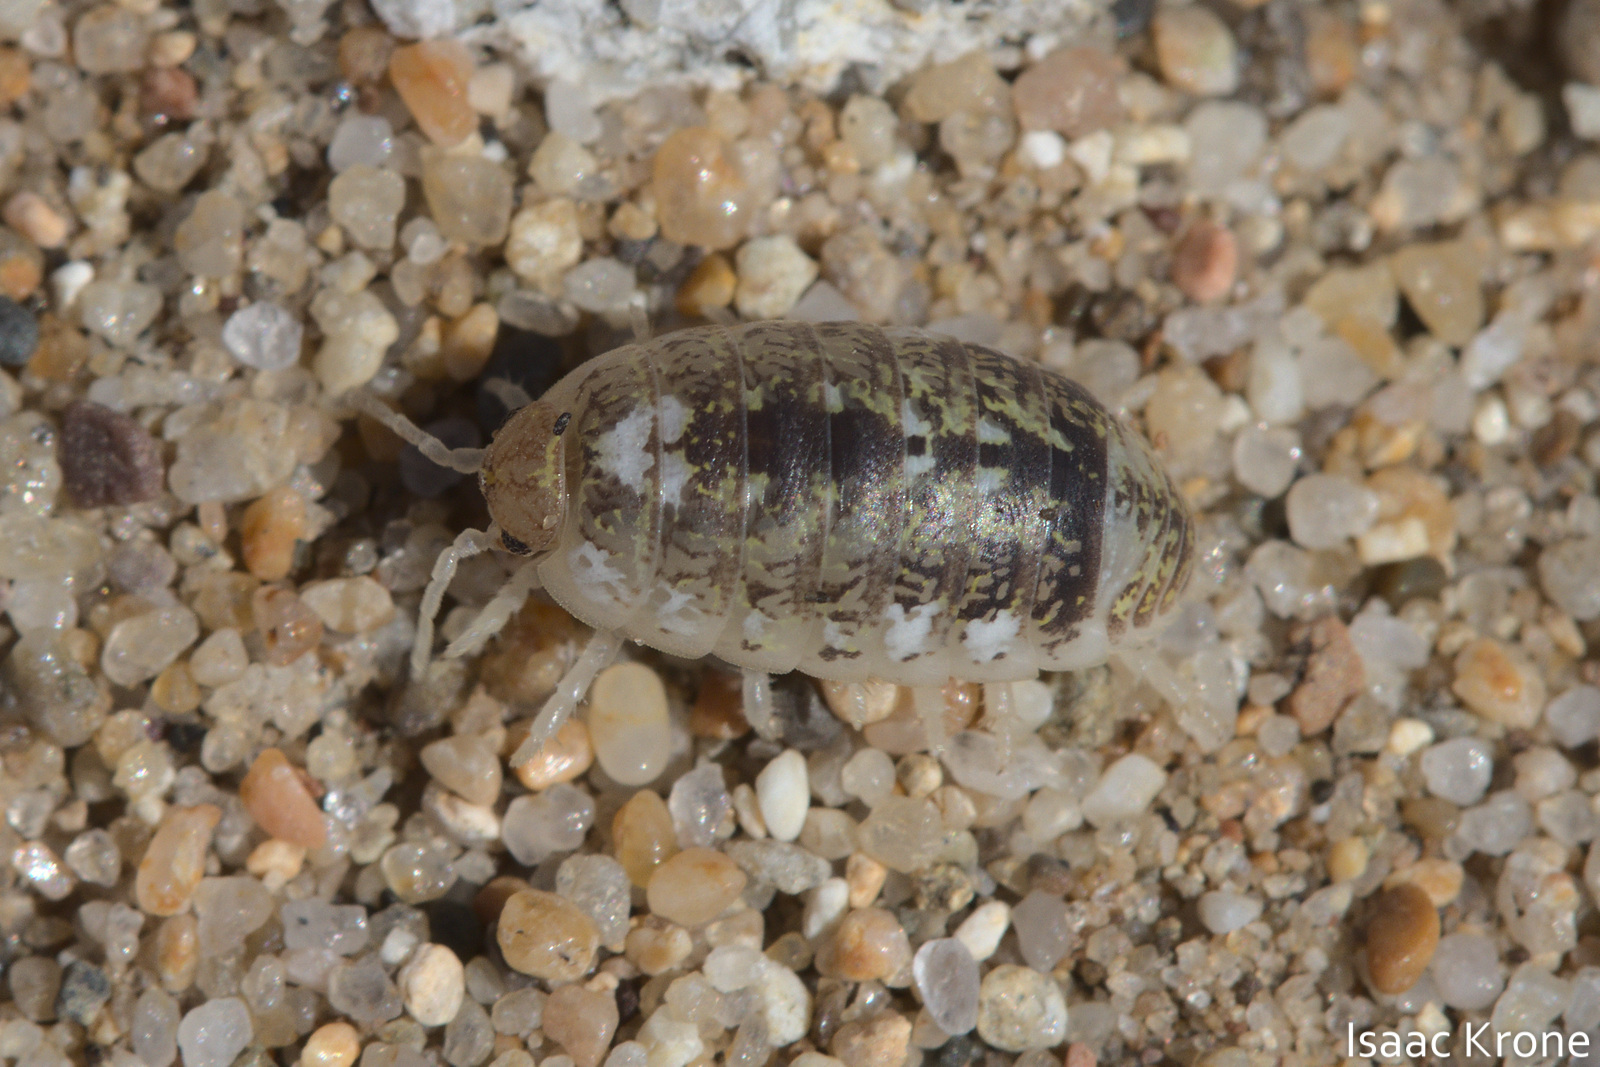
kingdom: Animalia
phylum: Arthropoda
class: Malacostraca
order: Isopoda
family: Alloniscidae
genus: Alloniscus
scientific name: Alloniscus perconvexus
